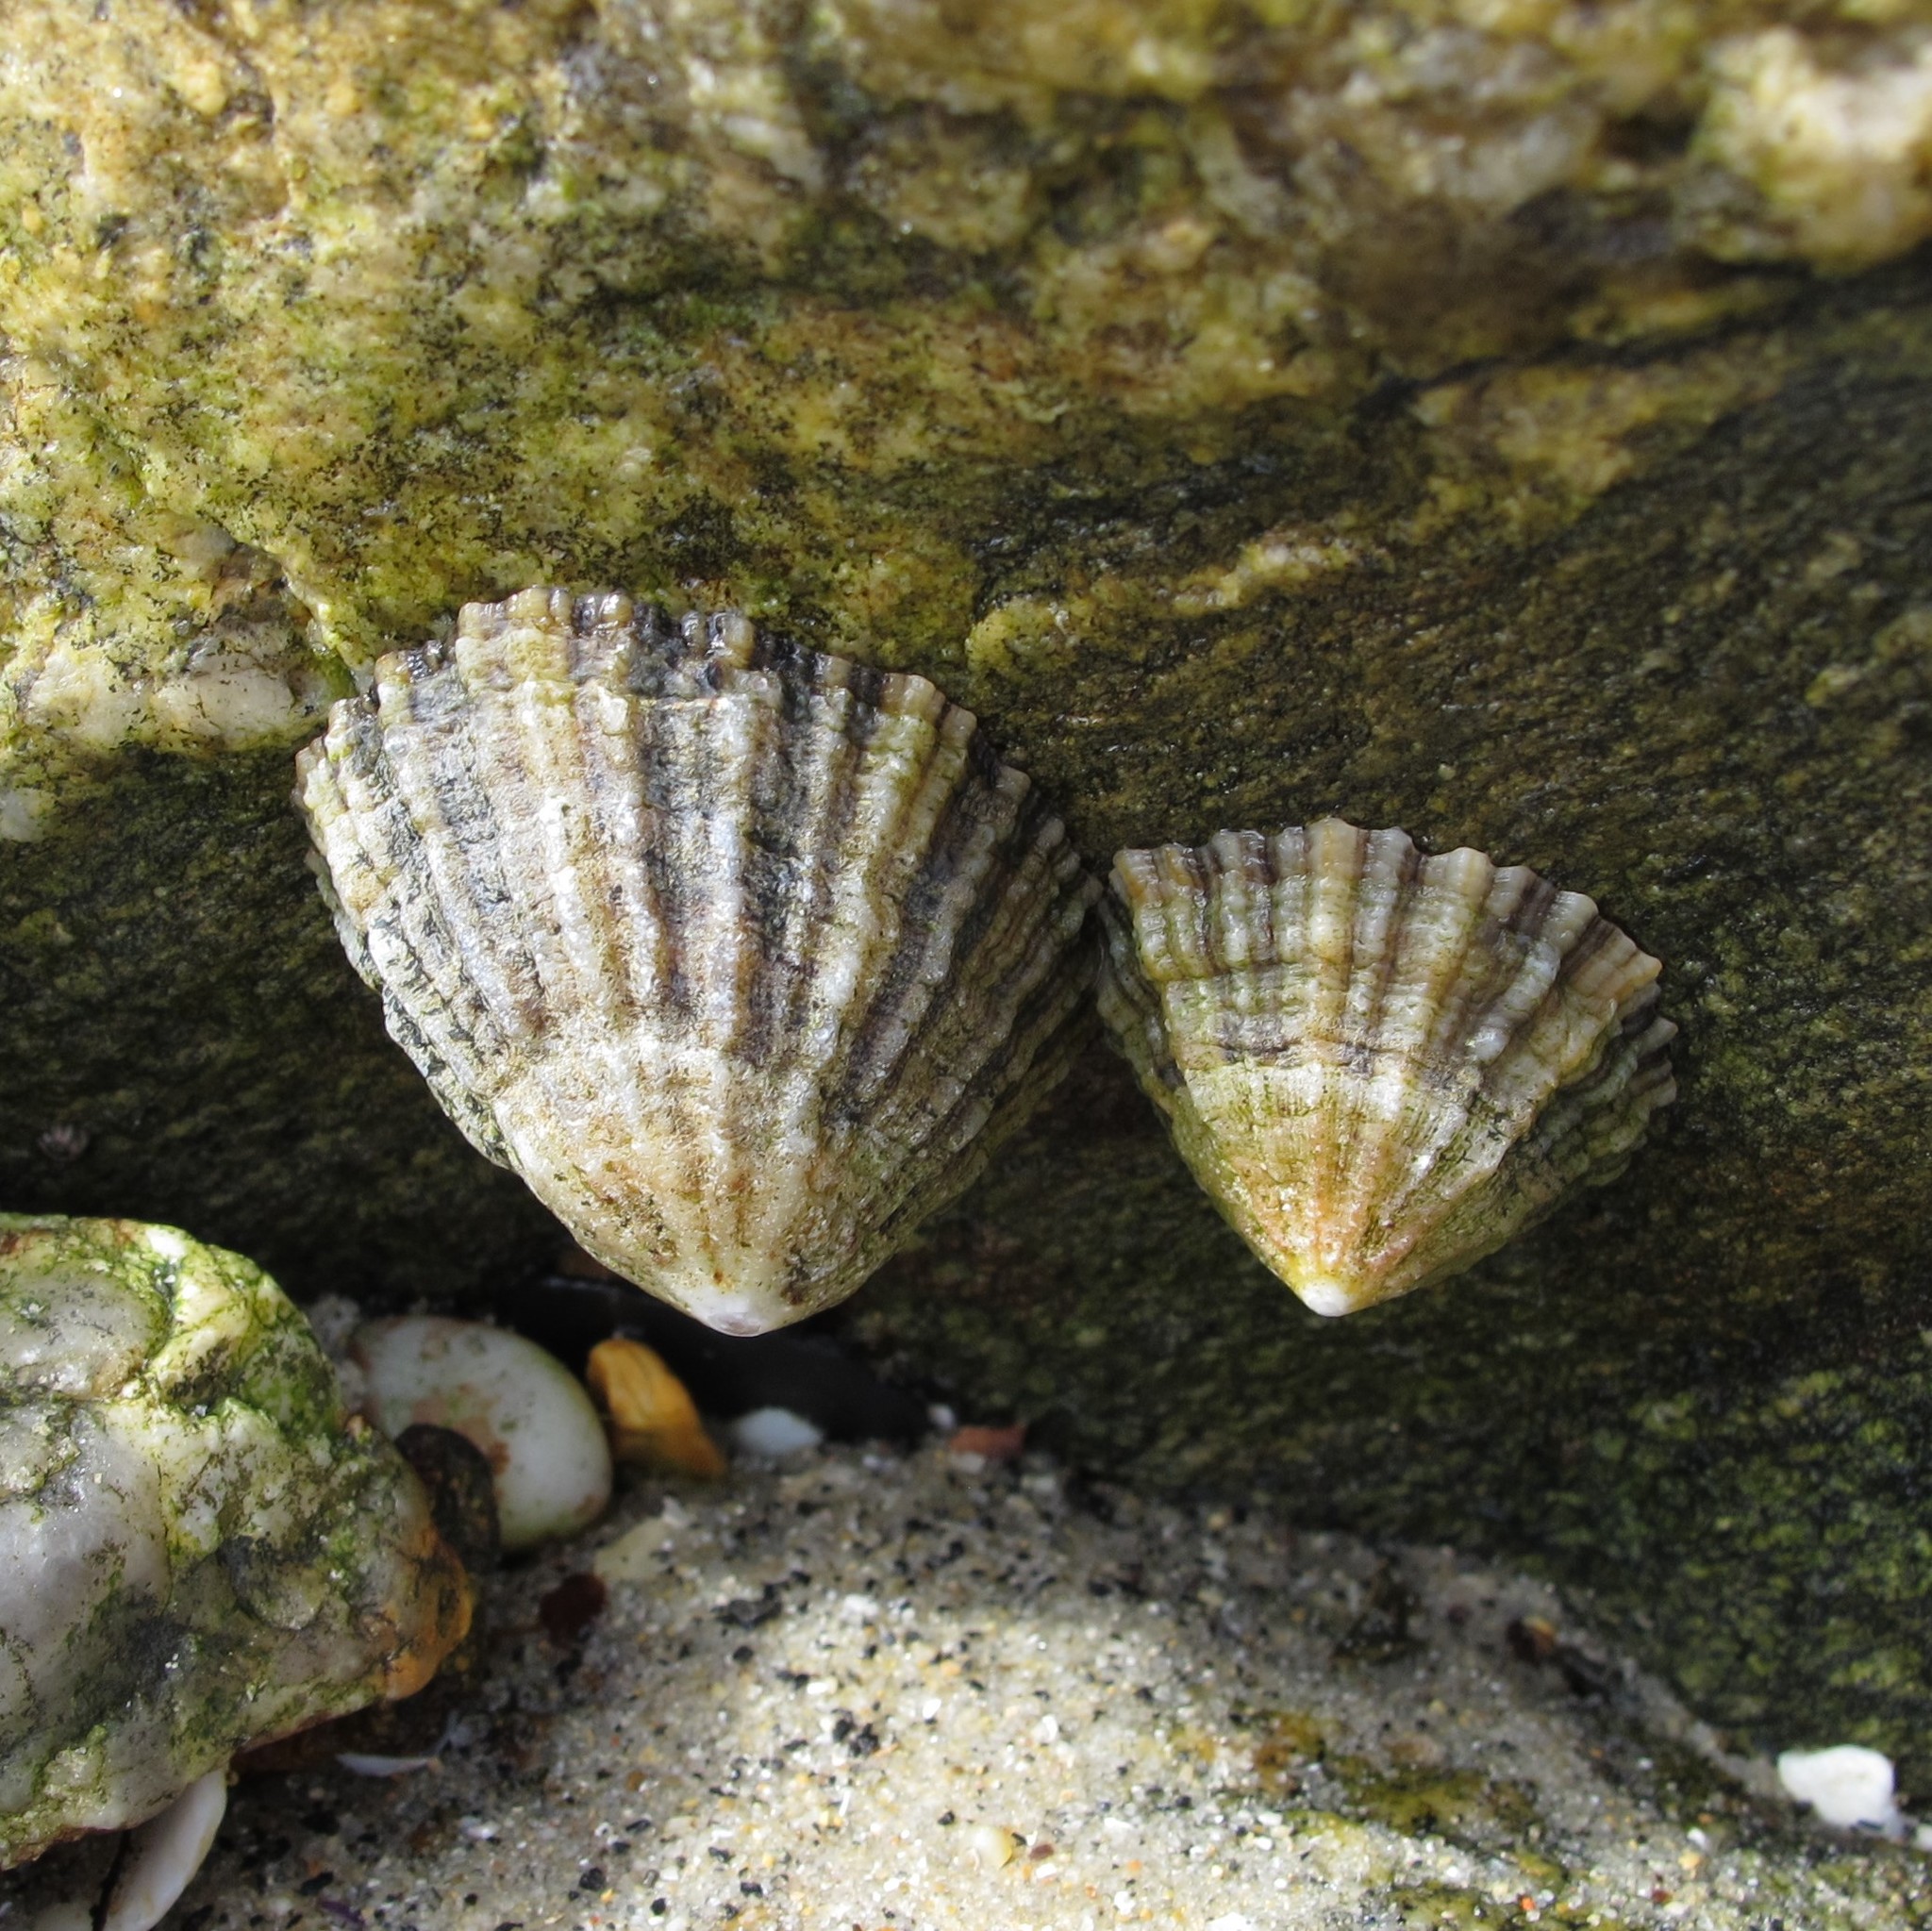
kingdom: Animalia
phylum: Mollusca
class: Gastropoda
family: Patellidae
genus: Patella
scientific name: Patella vulgata
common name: Common limpet
